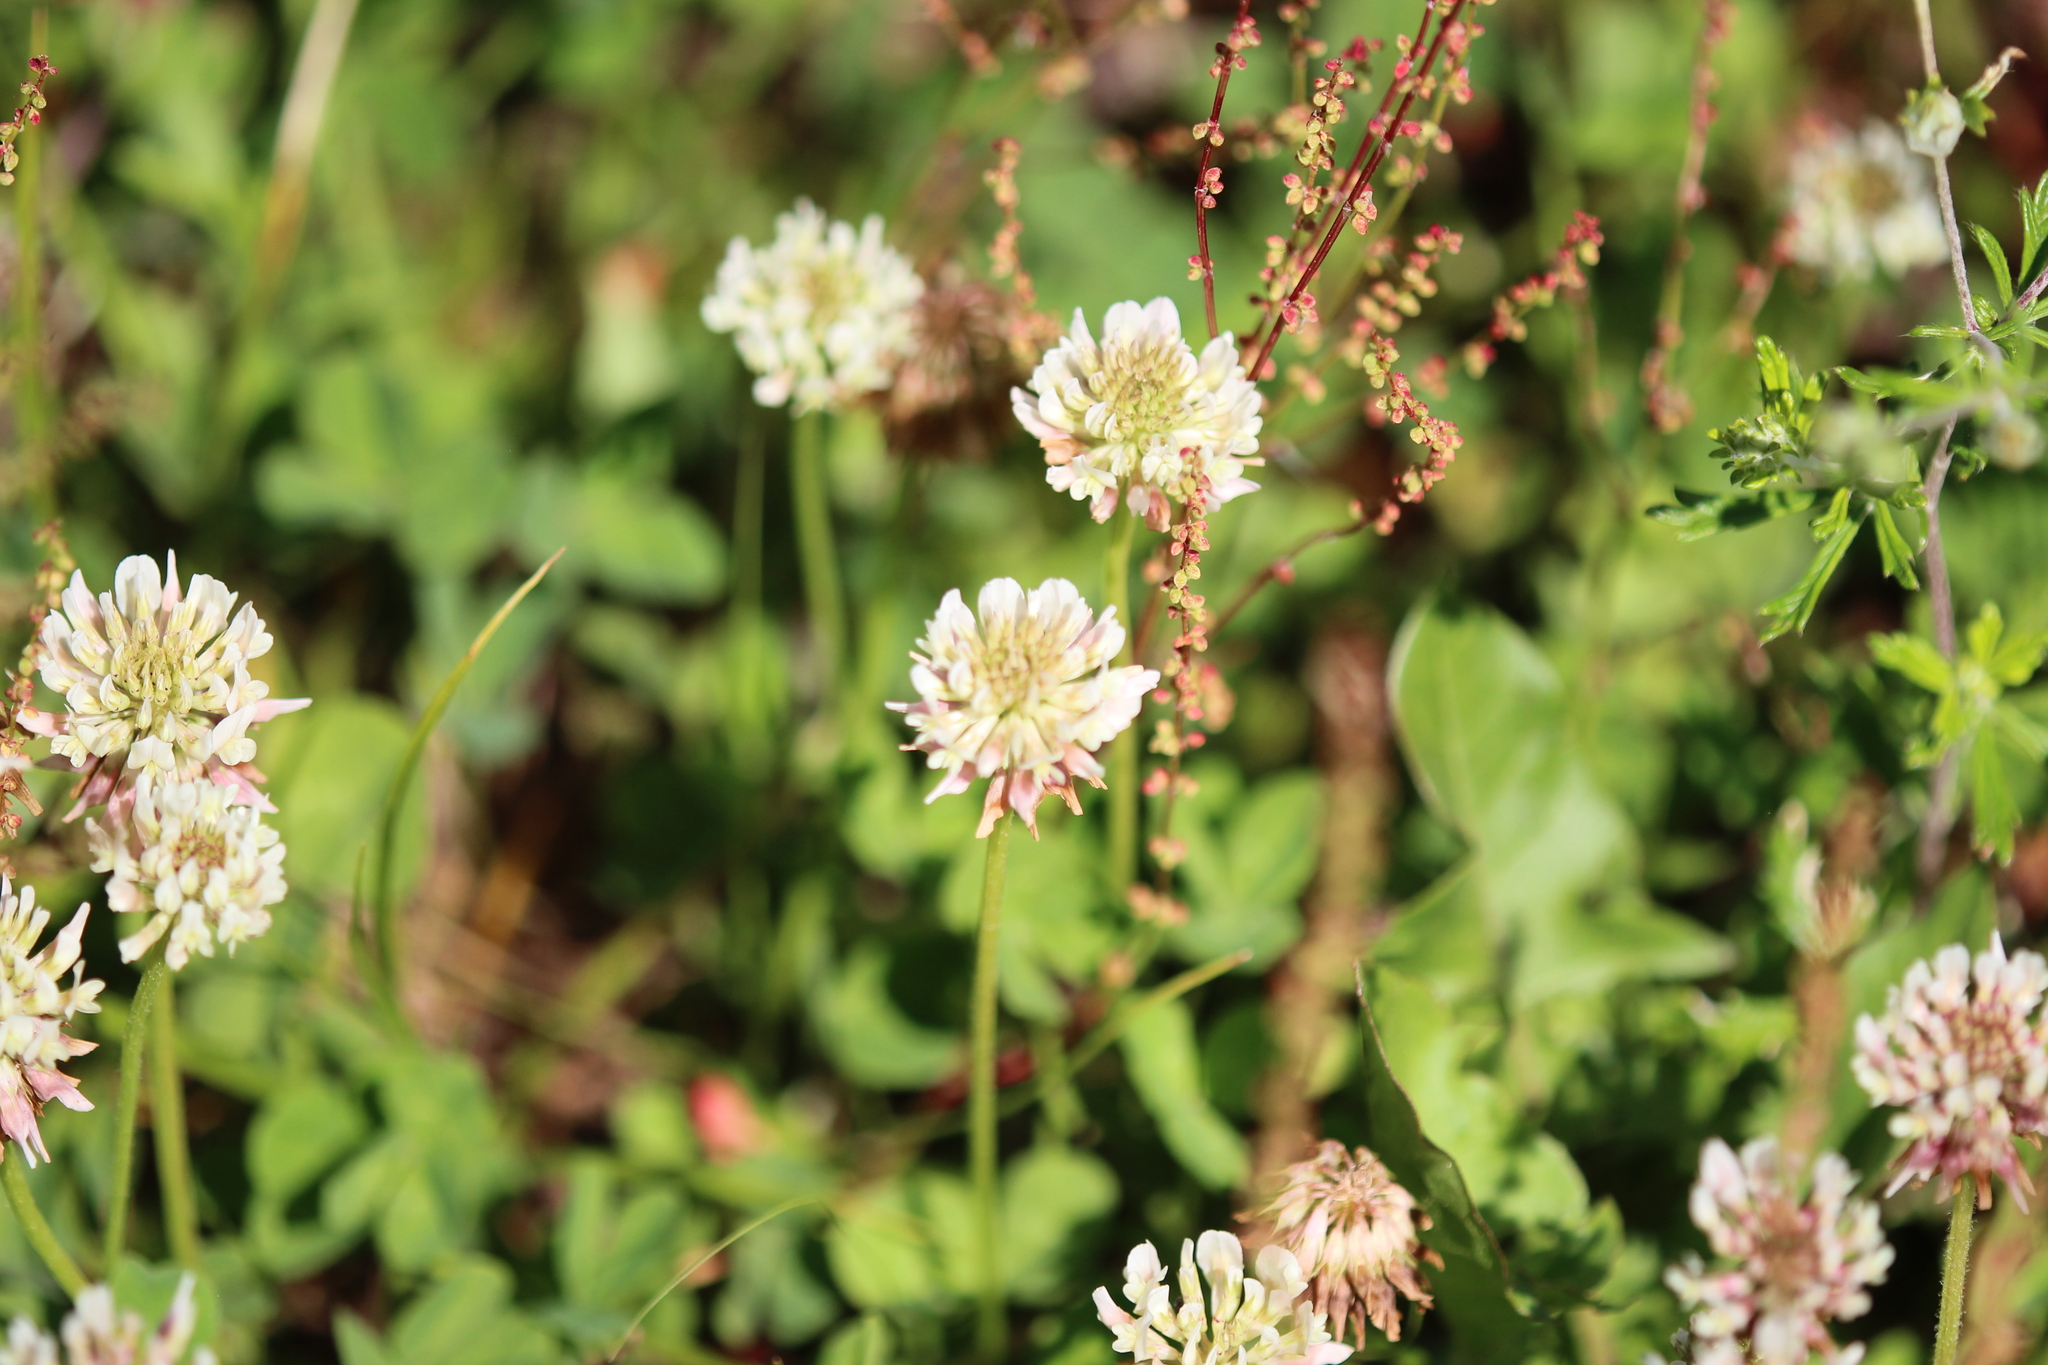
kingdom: Plantae
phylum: Tracheophyta
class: Magnoliopsida
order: Fabales
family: Fabaceae
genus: Trifolium
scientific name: Trifolium repens
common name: White clover
